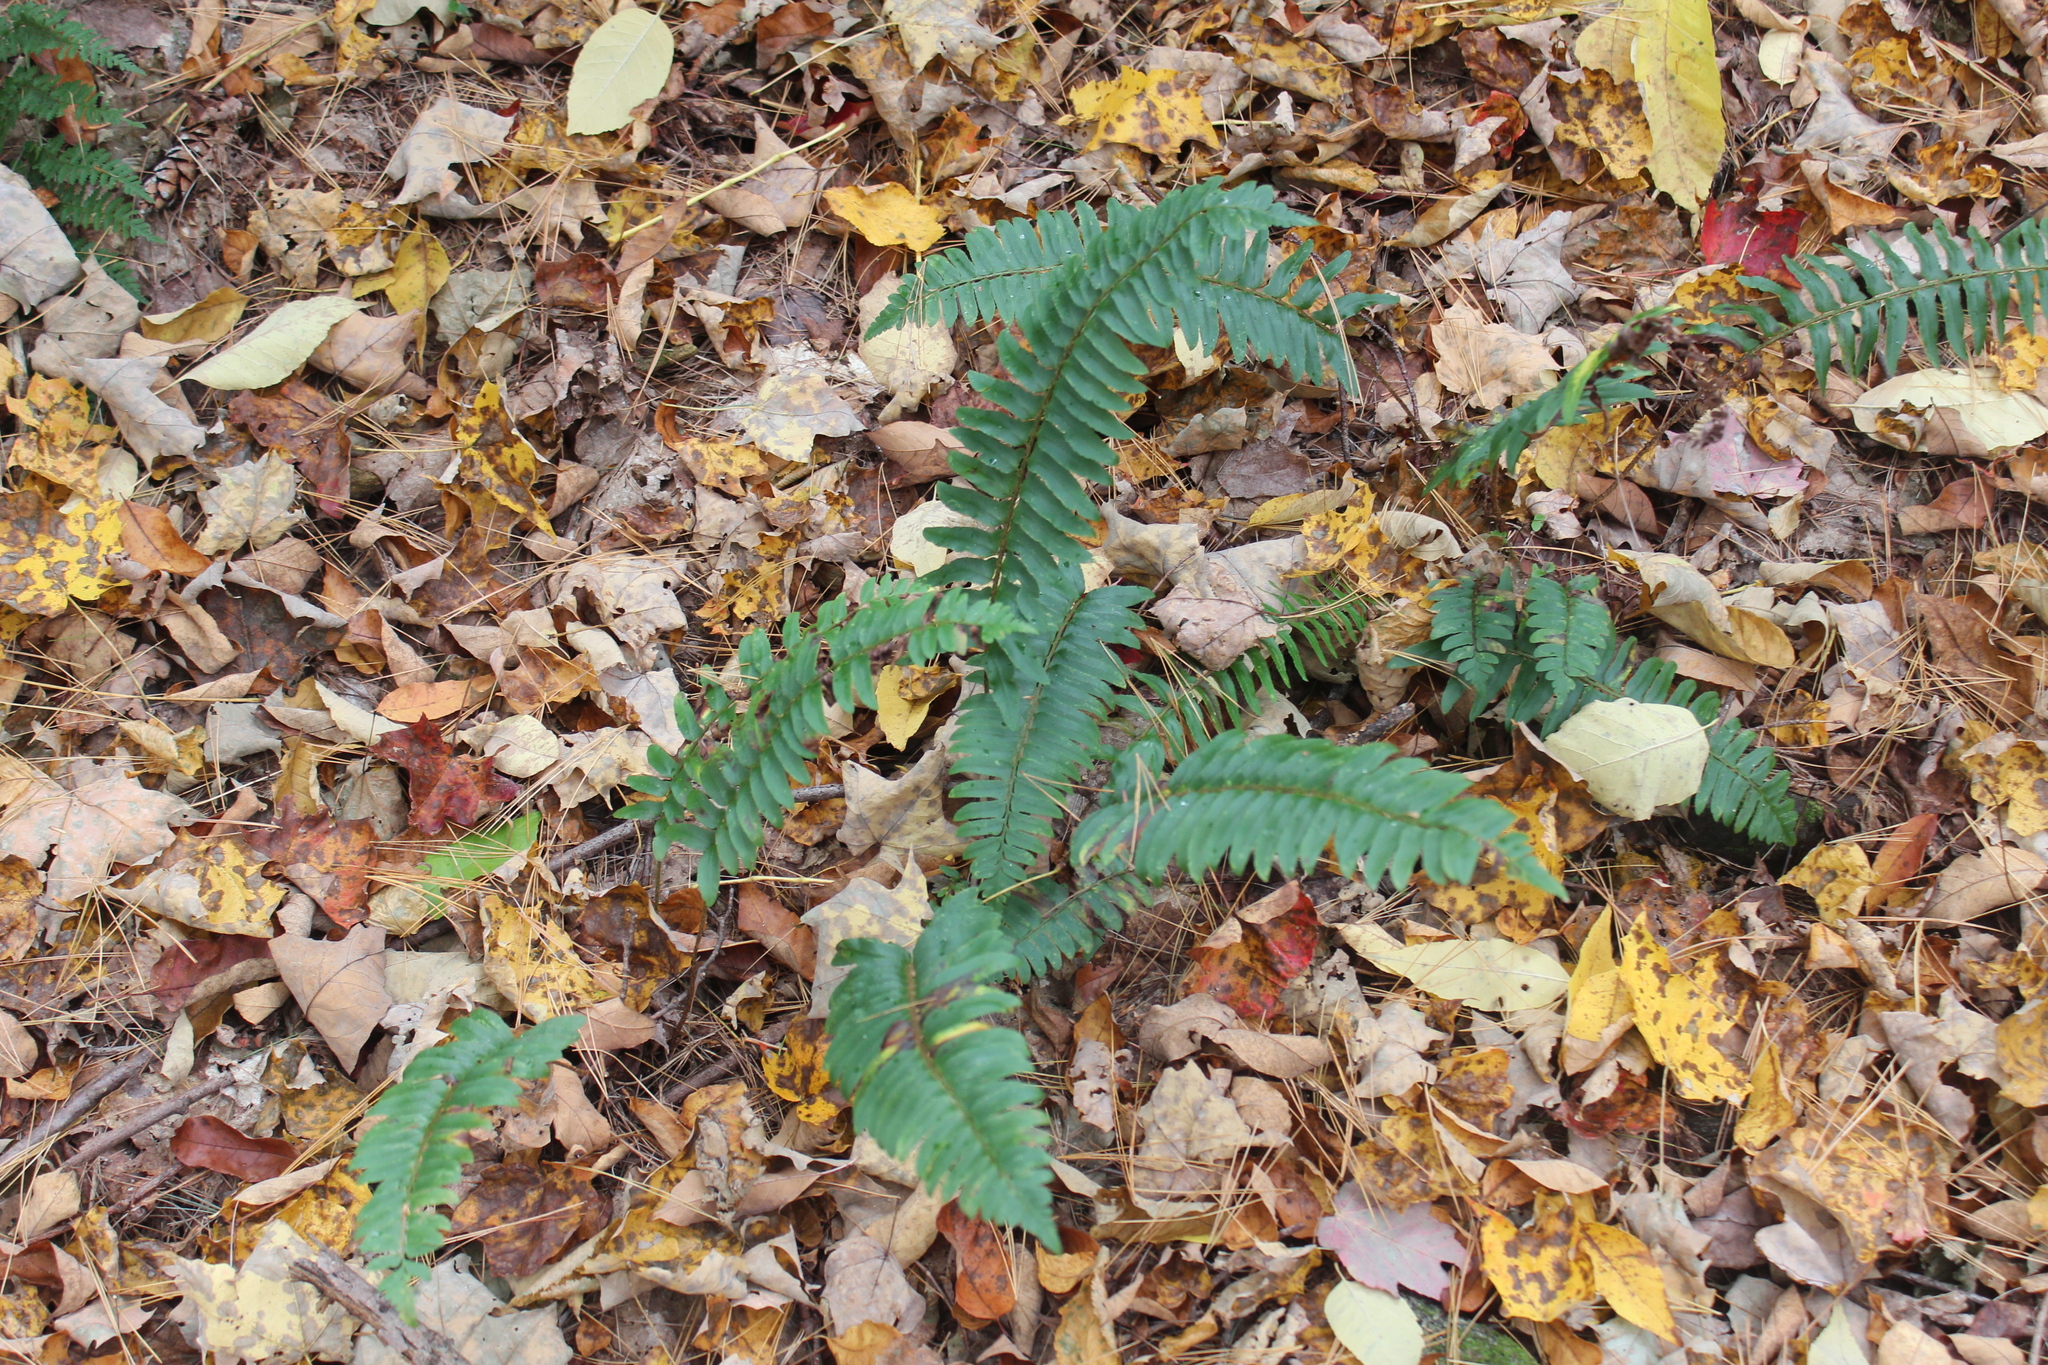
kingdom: Plantae
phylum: Tracheophyta
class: Polypodiopsida
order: Polypodiales
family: Dryopteridaceae
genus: Polystichum
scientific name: Polystichum acrostichoides
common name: Christmas fern
